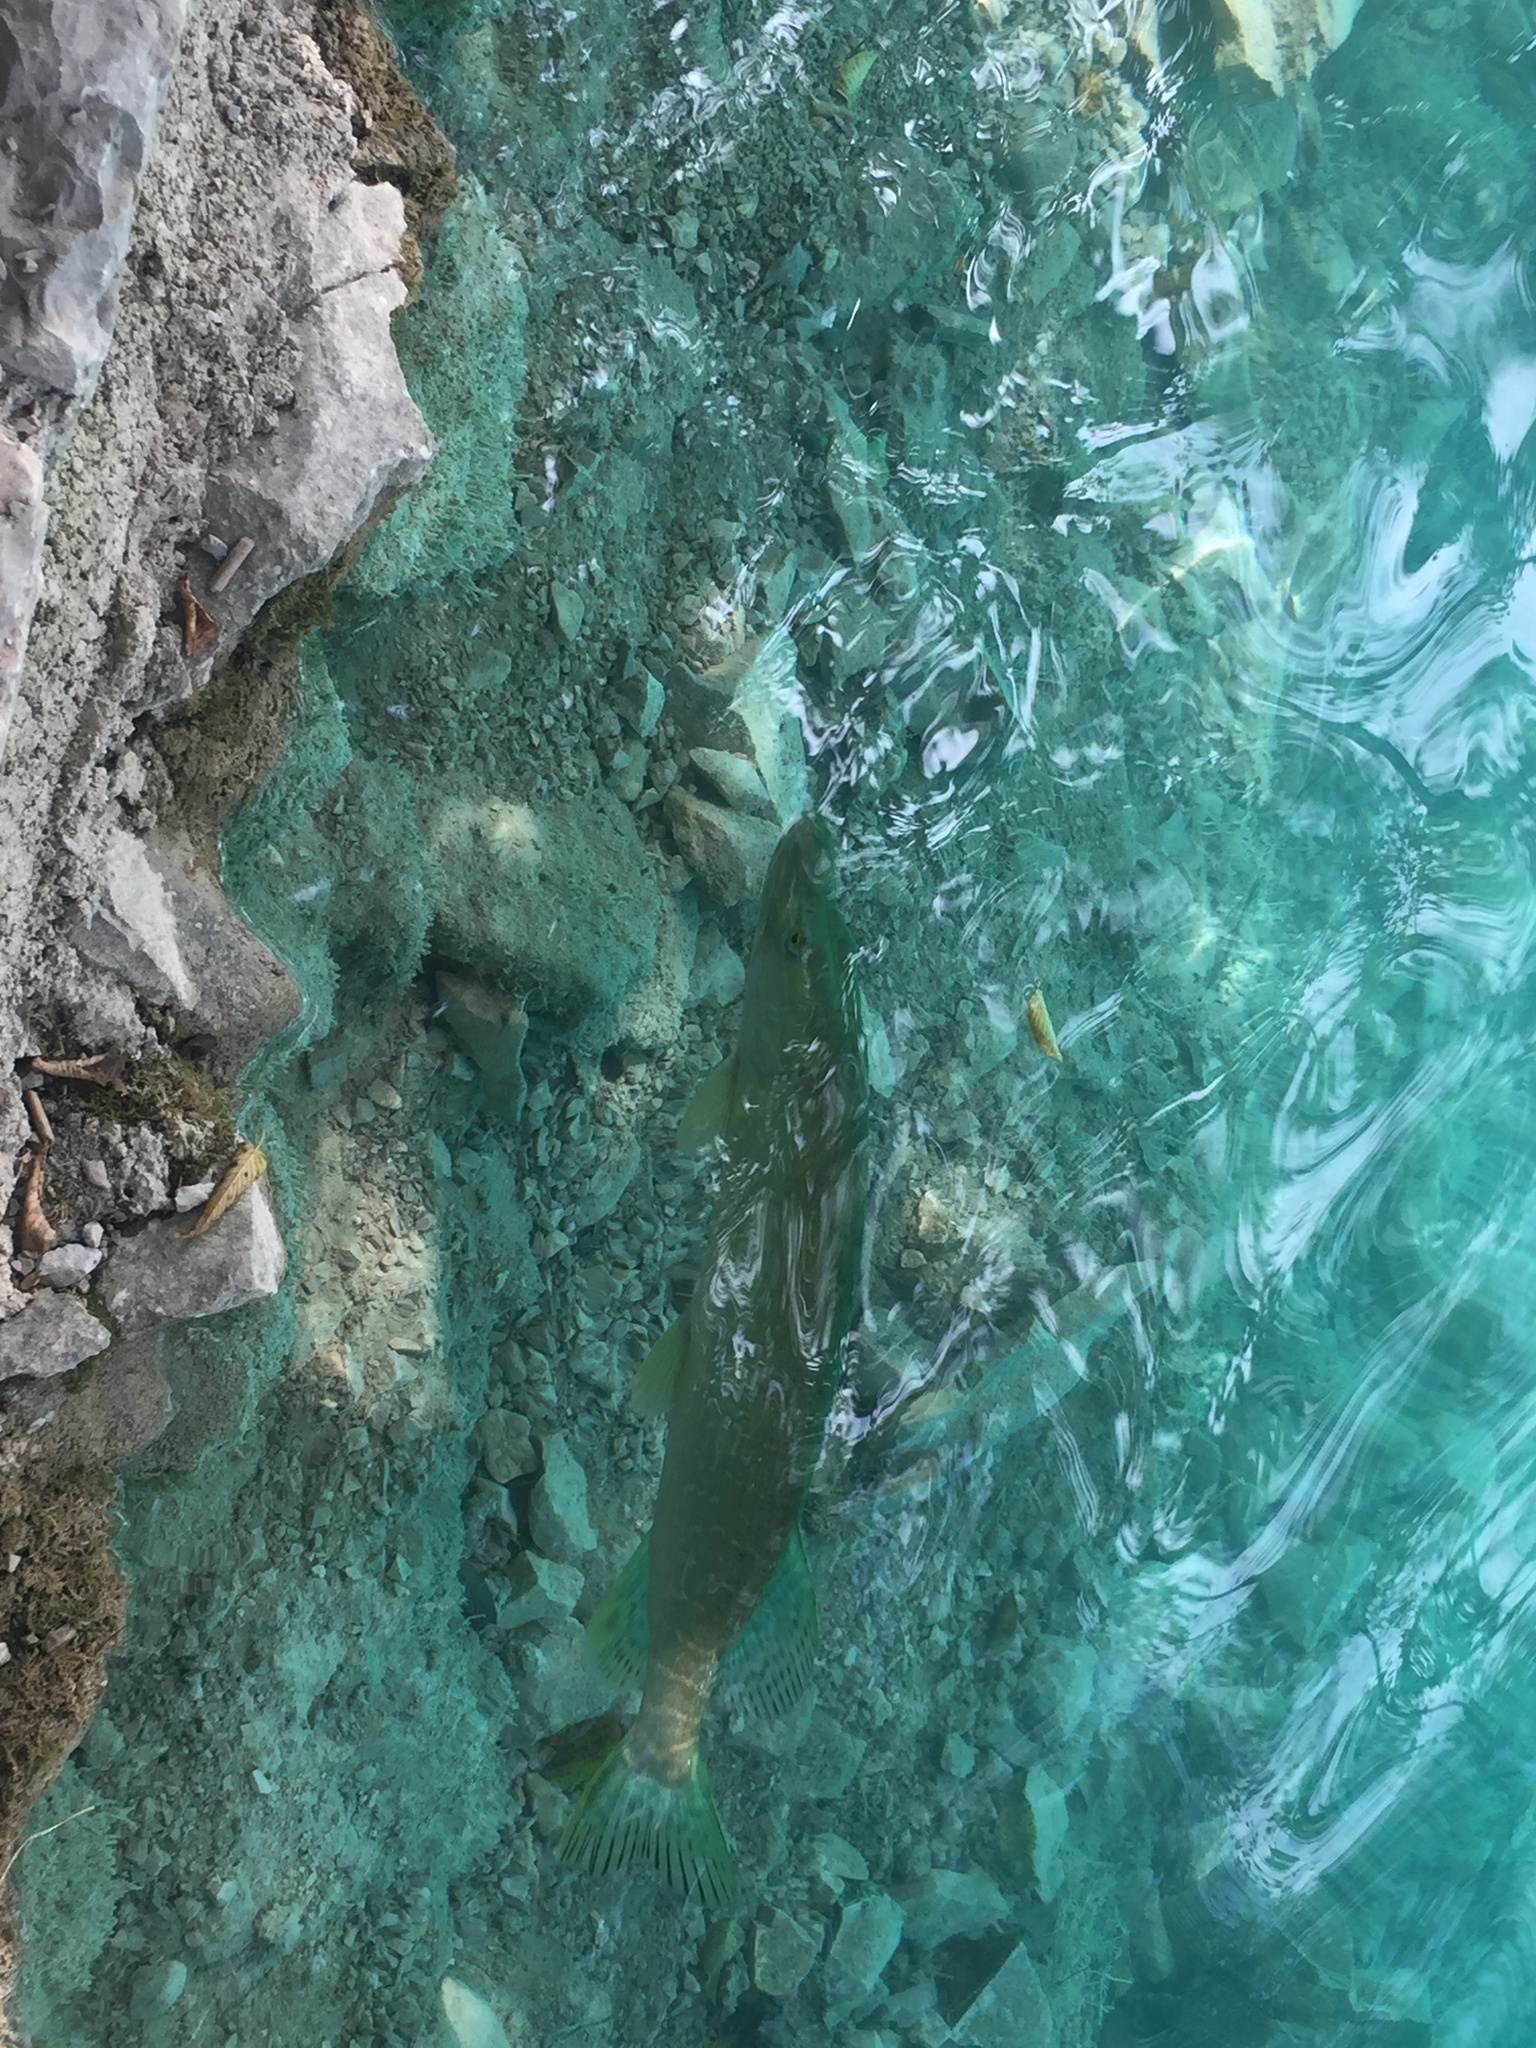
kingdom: Animalia
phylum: Chordata
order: Esociformes
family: Esocidae
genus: Esox
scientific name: Esox lucius
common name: Northern pike
